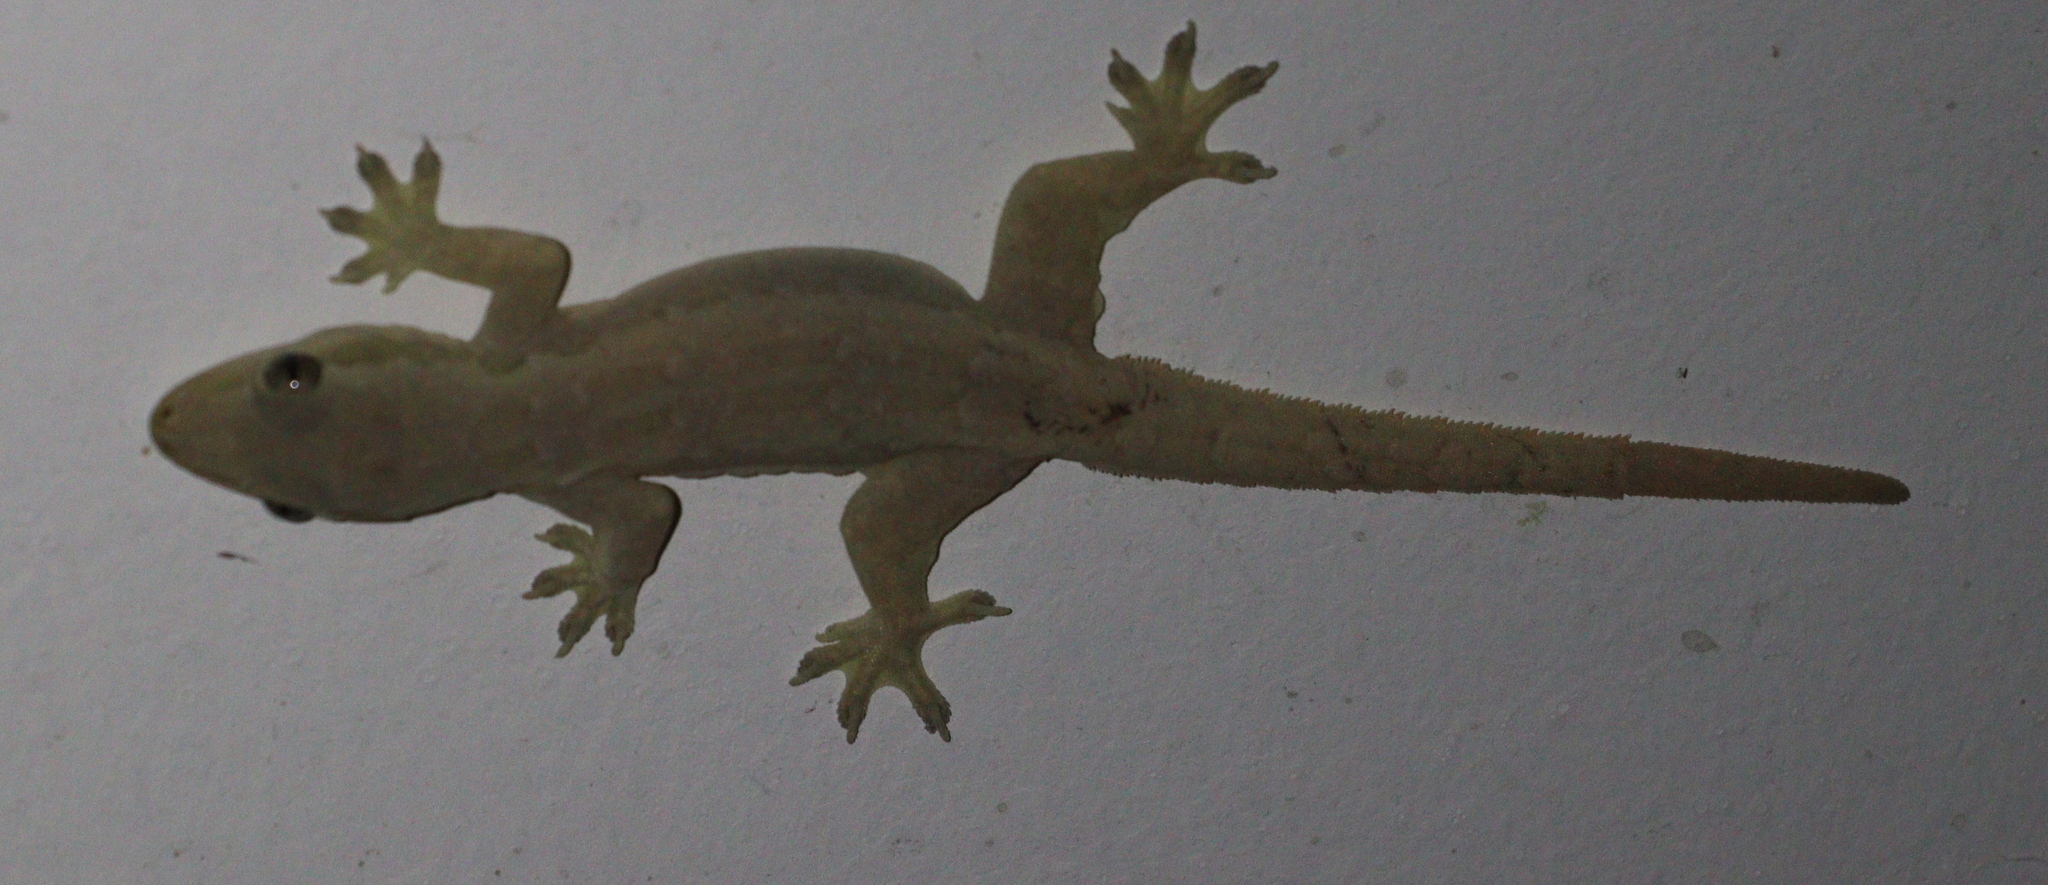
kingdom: Animalia
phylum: Chordata
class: Squamata
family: Gekkonidae
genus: Hemidactylus
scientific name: Hemidactylus platyurus
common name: Flat-tailed house gecko
